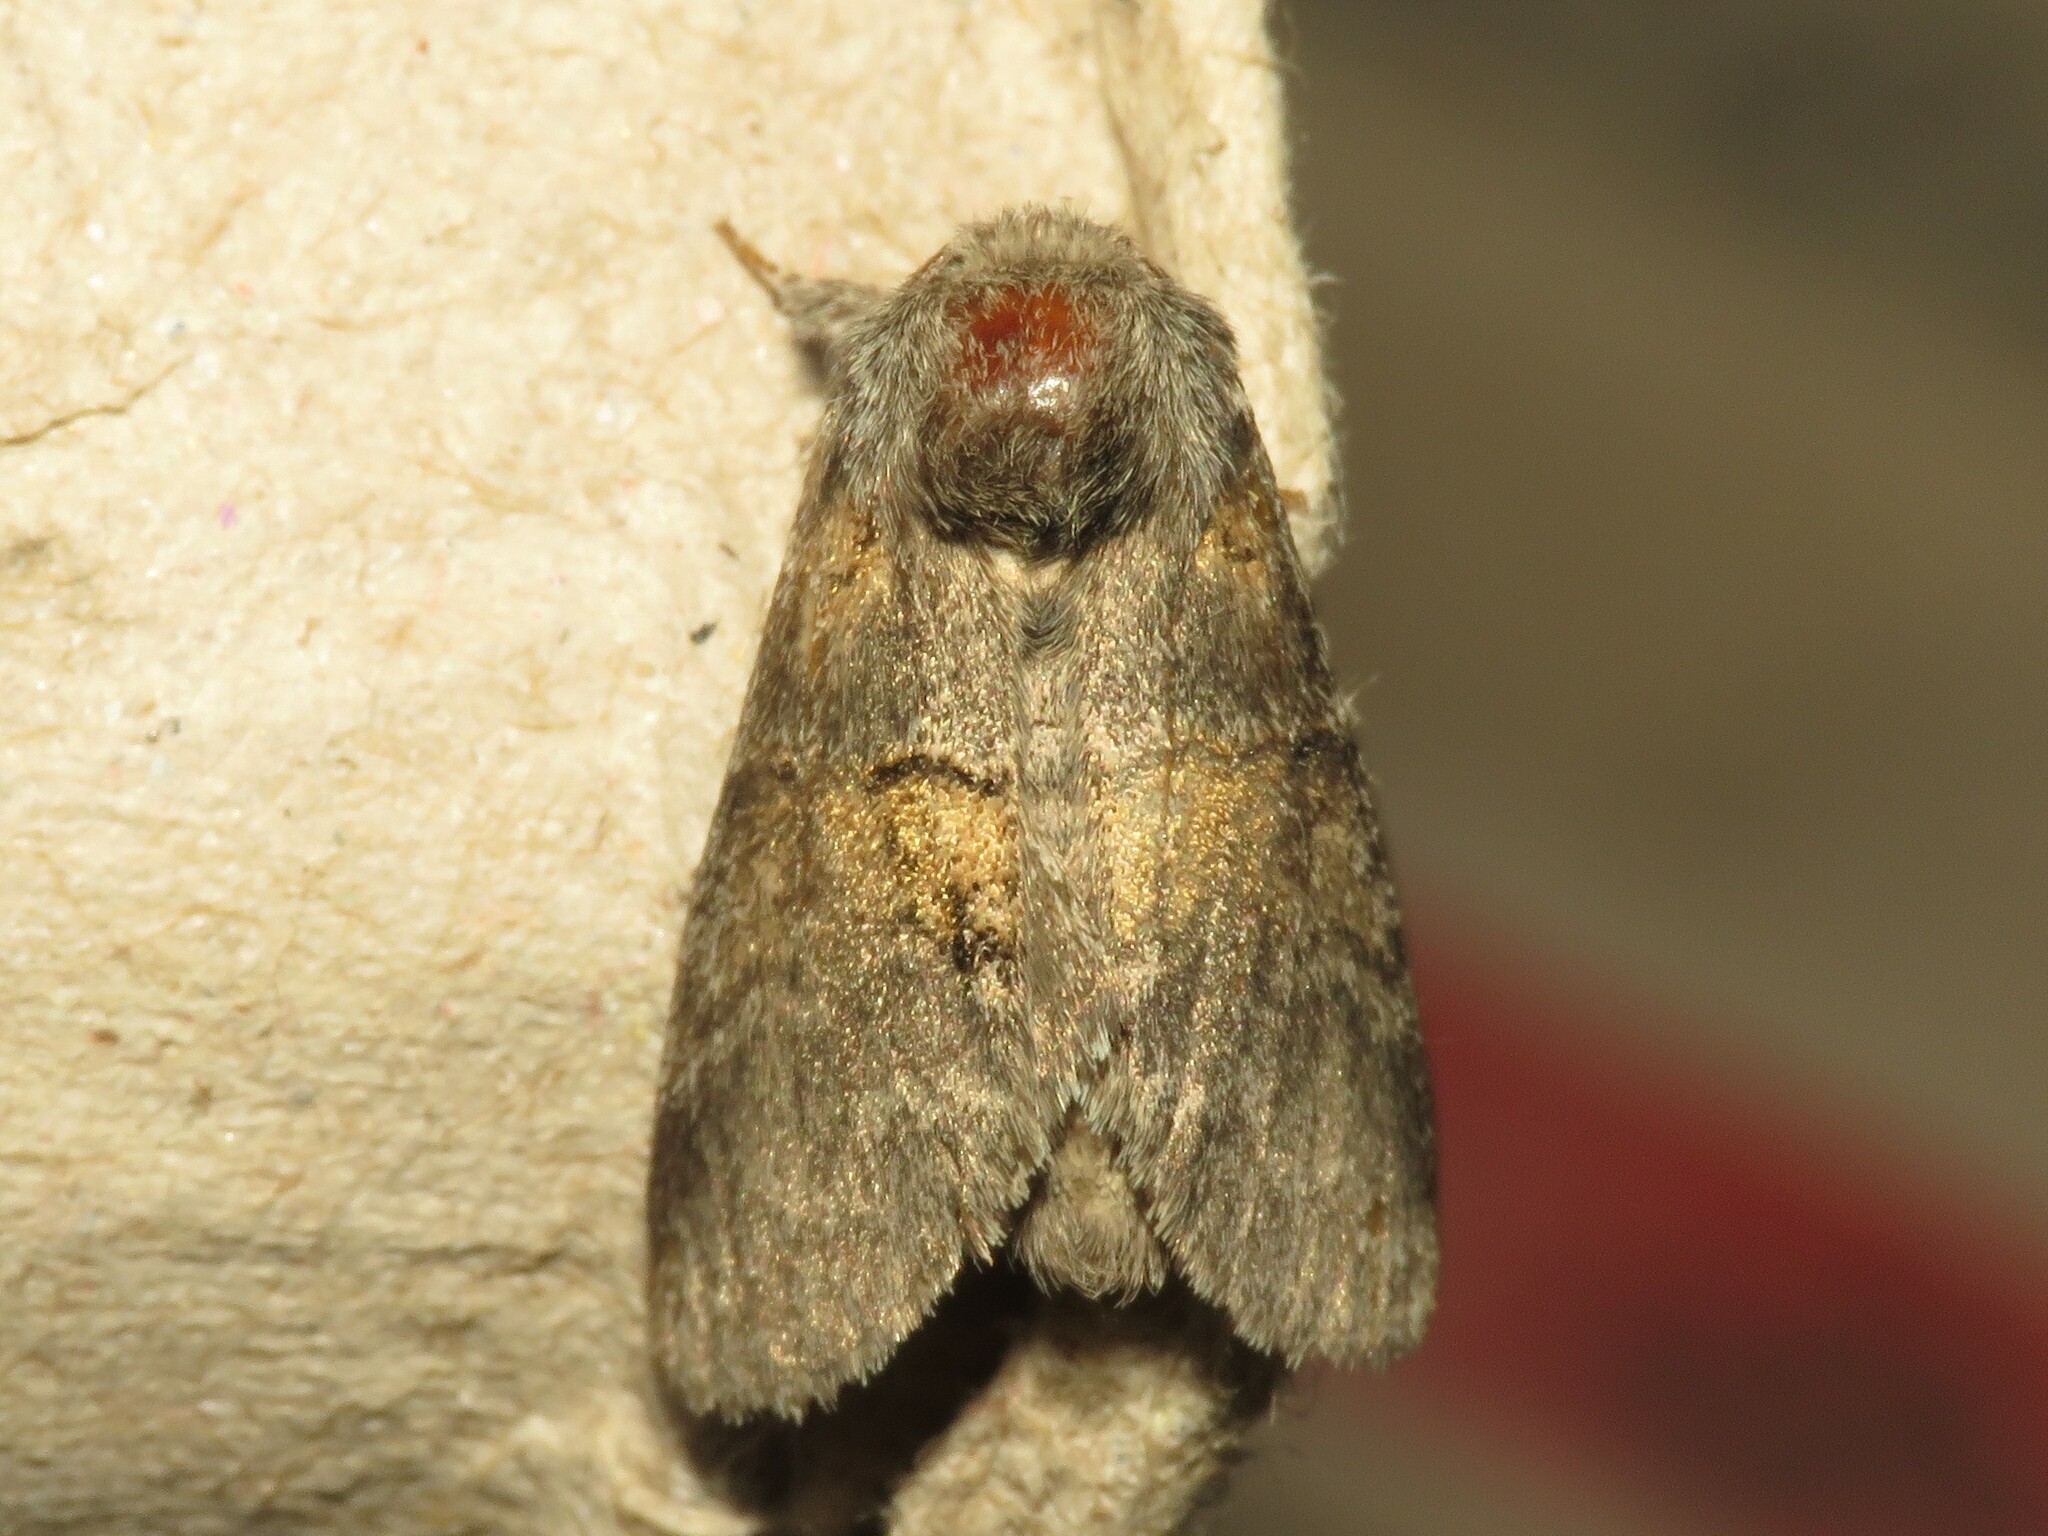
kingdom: Animalia
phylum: Arthropoda
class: Insecta
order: Lepidoptera
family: Notodontidae
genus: Gluphisia
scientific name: Gluphisia septentrionis
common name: Common gluphisia
